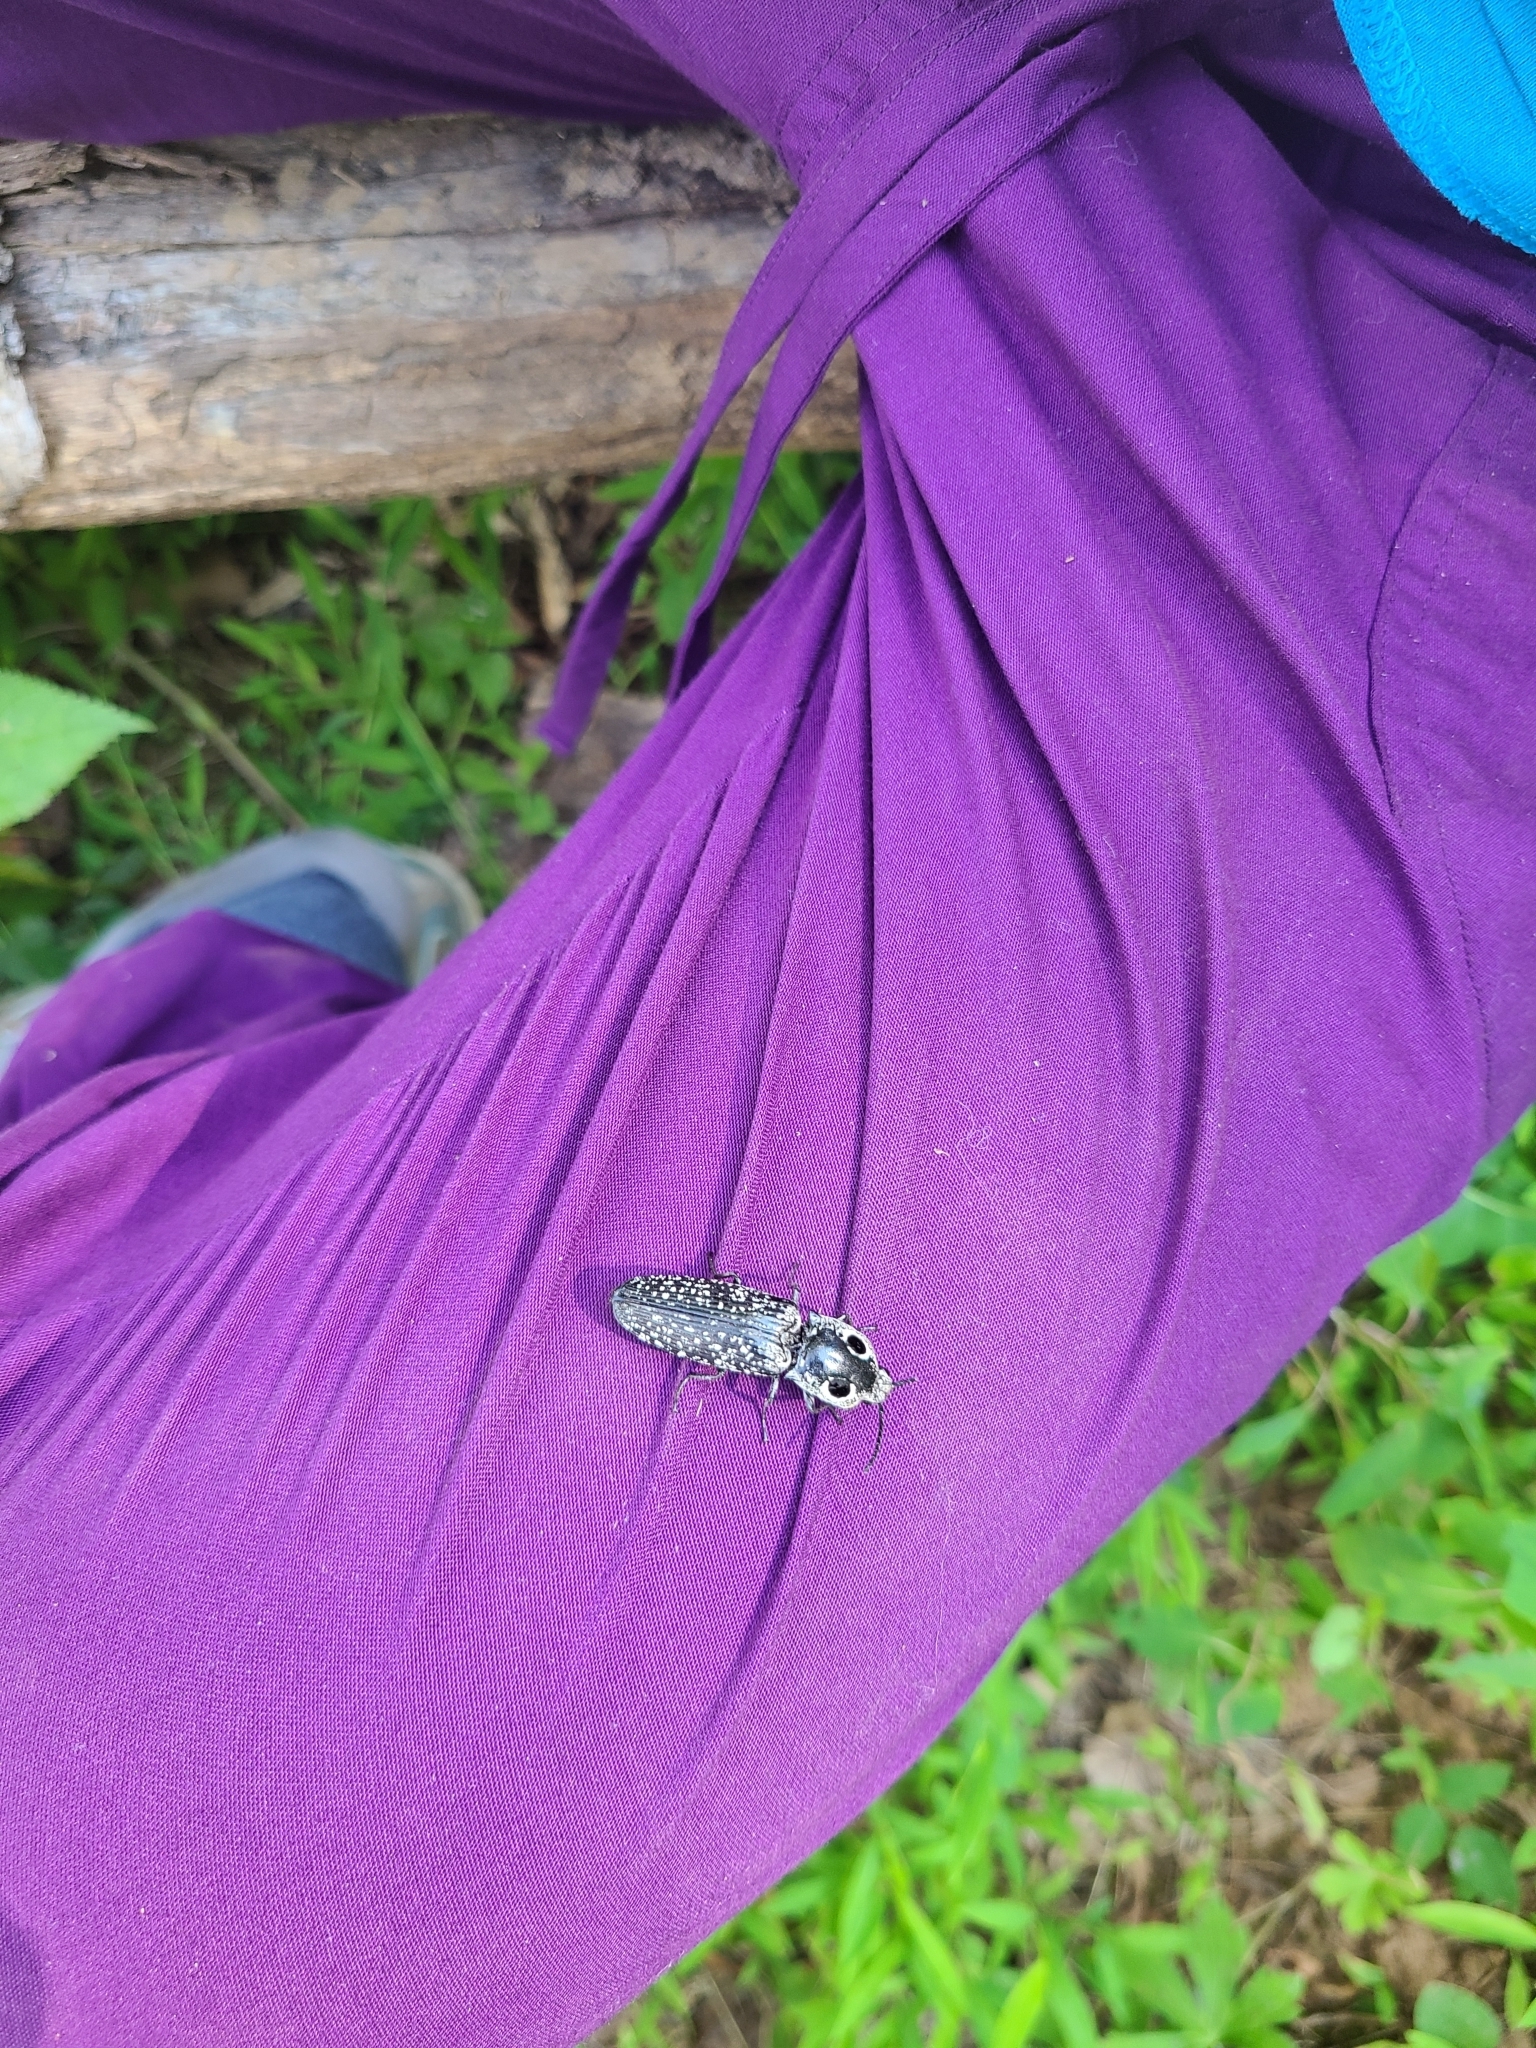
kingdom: Animalia
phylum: Arthropoda
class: Insecta
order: Coleoptera
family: Elateridae
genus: Alaus
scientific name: Alaus oculatus
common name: Eastern eyed click beetle
